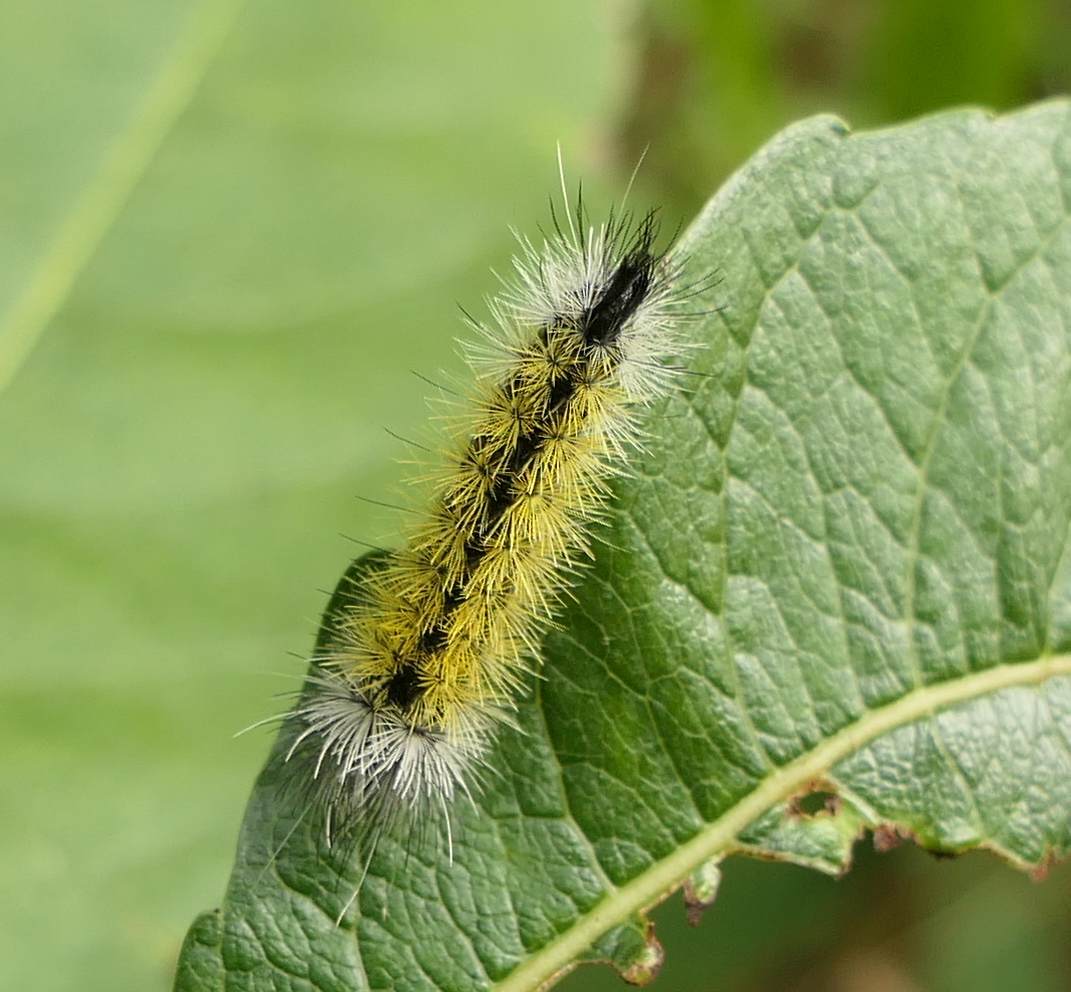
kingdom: Animalia
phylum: Arthropoda
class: Insecta
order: Lepidoptera
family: Erebidae
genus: Ctenucha
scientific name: Ctenucha virginica
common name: Virginia ctenucha moth
